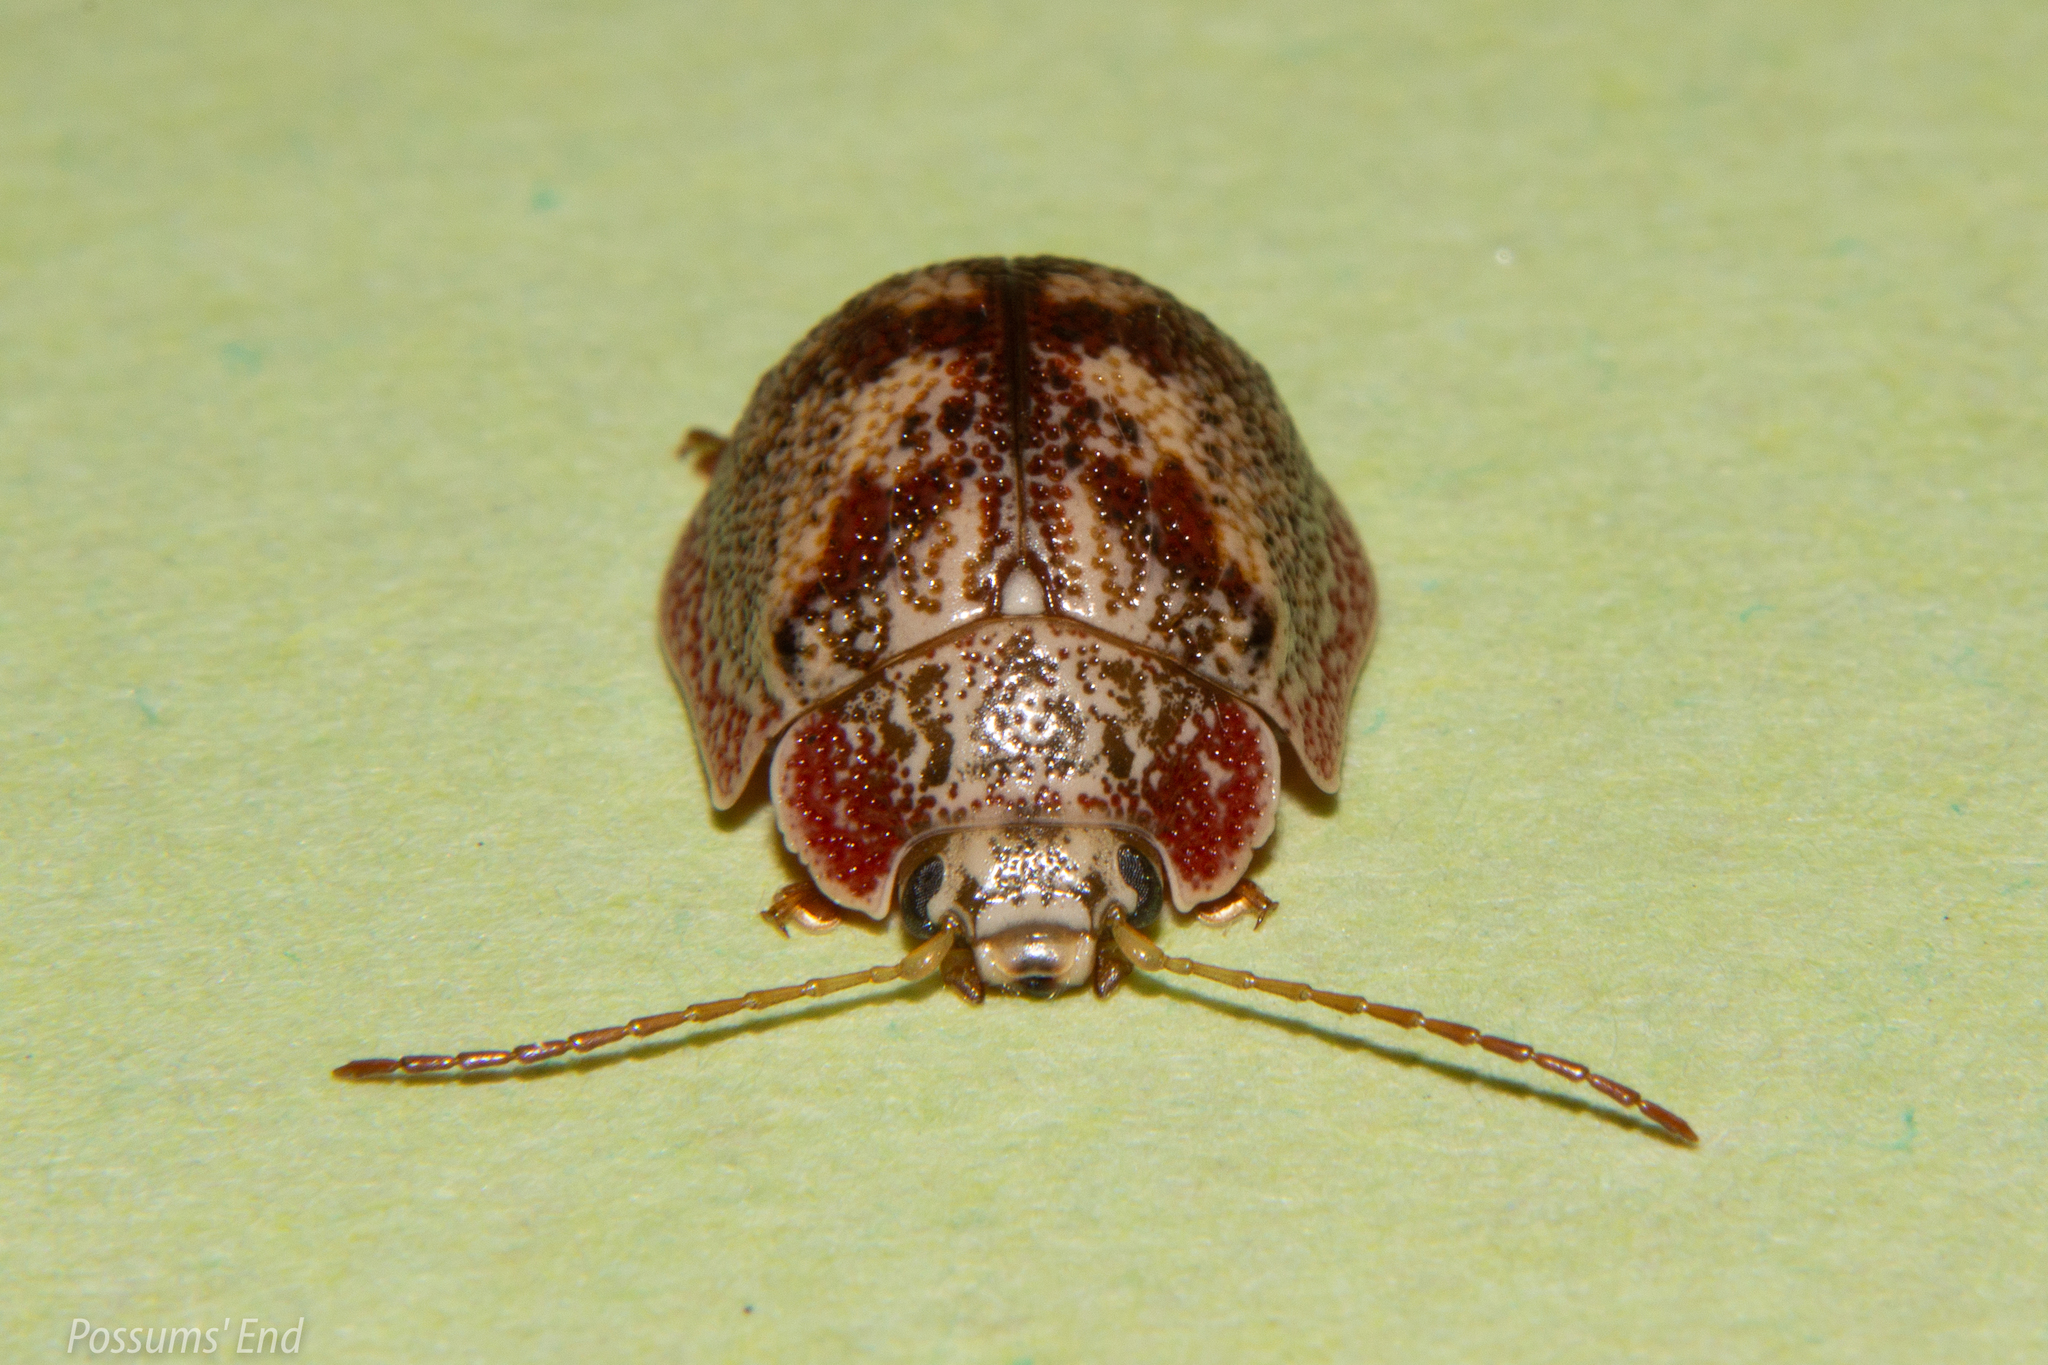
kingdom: Animalia
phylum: Arthropoda
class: Insecta
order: Coleoptera
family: Chrysomelidae
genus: Paropsis
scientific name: Paropsis charybdis
